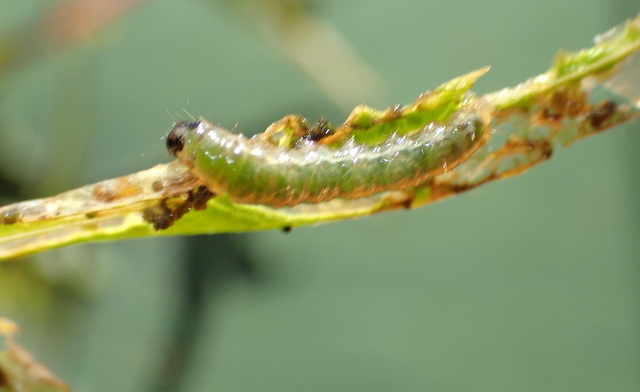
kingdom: Animalia
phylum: Arthropoda
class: Insecta
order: Coleoptera
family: Chrysomelidae
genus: Agasicles
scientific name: Agasicles hygrophila
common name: Alligatorweed flea beetle
